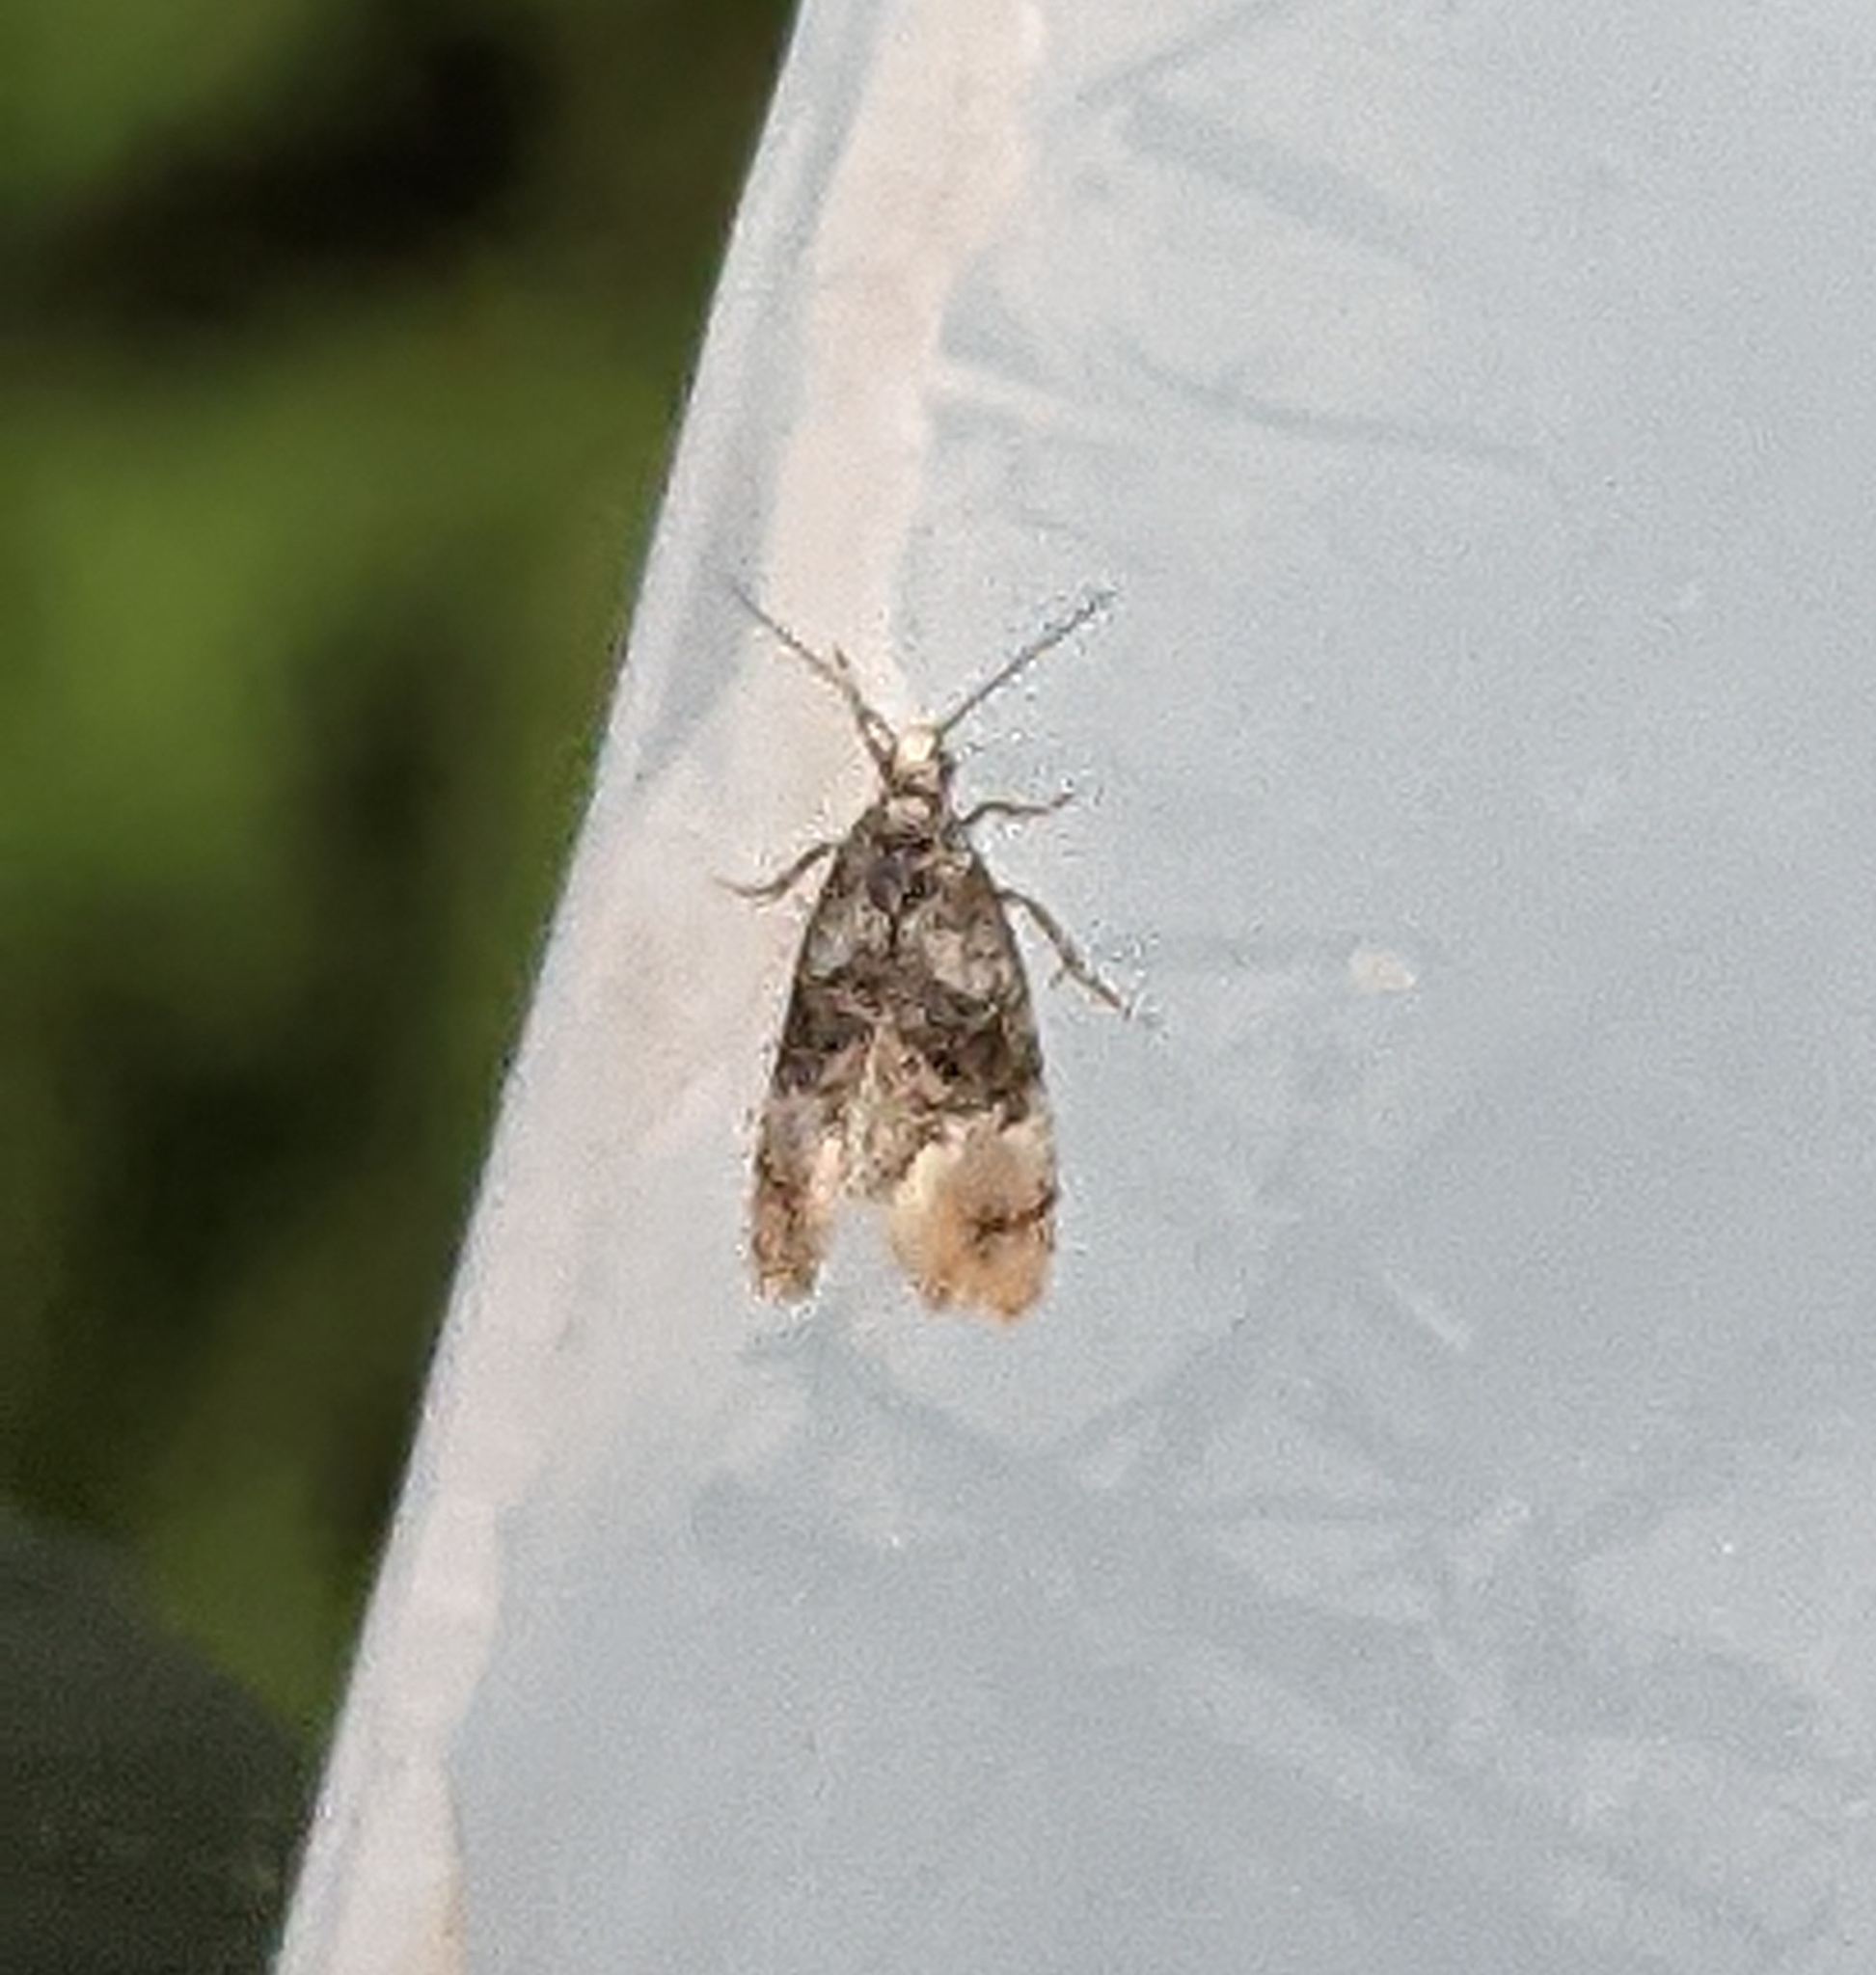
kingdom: Animalia
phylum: Arthropoda
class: Insecta
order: Lepidoptera
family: Tortricidae
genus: Thyraylia
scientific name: Thyraylia nana
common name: Birch conch
